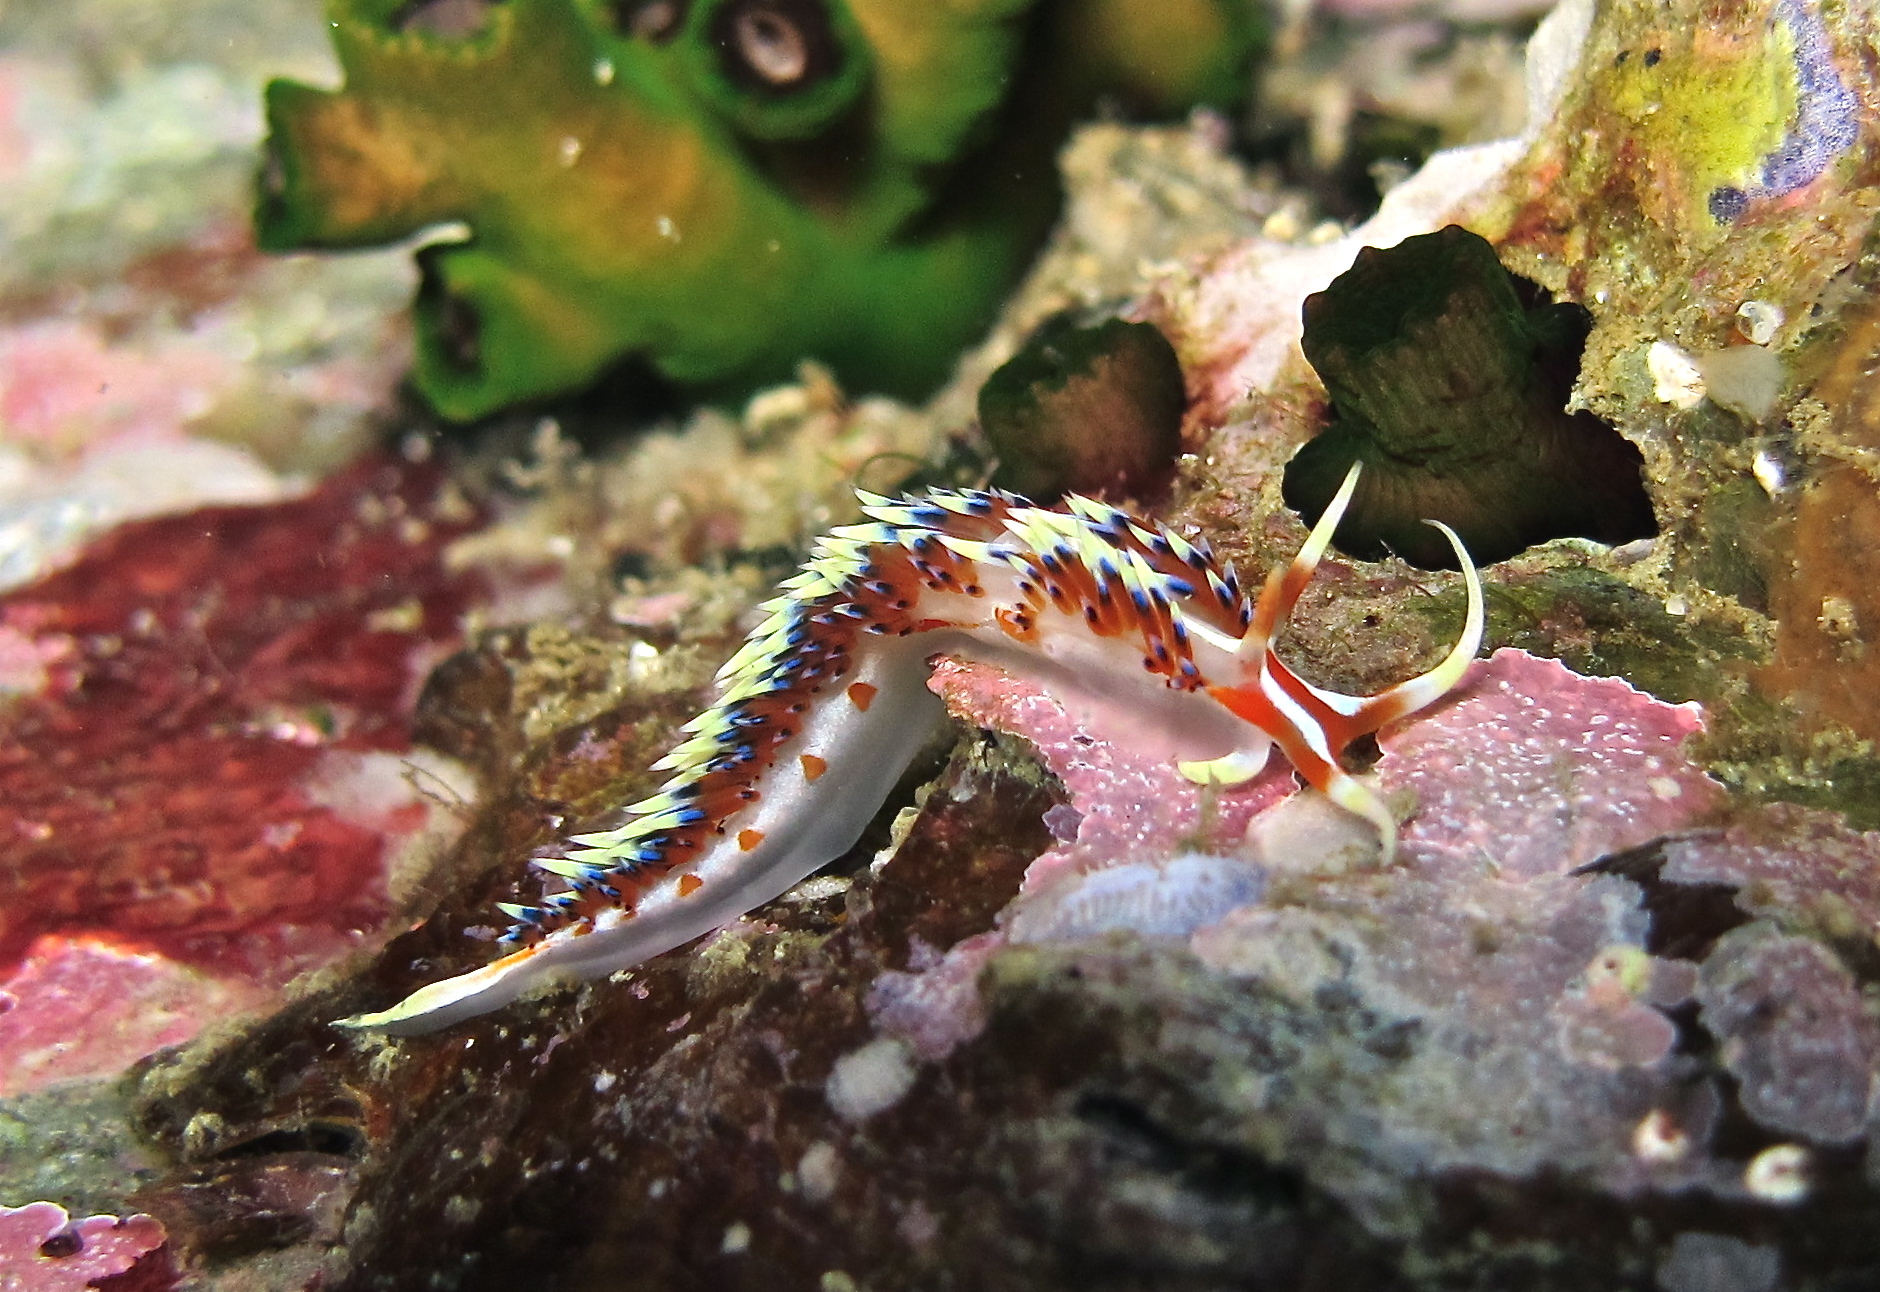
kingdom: Animalia
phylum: Mollusca
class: Gastropoda
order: Nudibranchia
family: Facelinidae
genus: Caloria
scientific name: Caloria indica
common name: Sea slug
